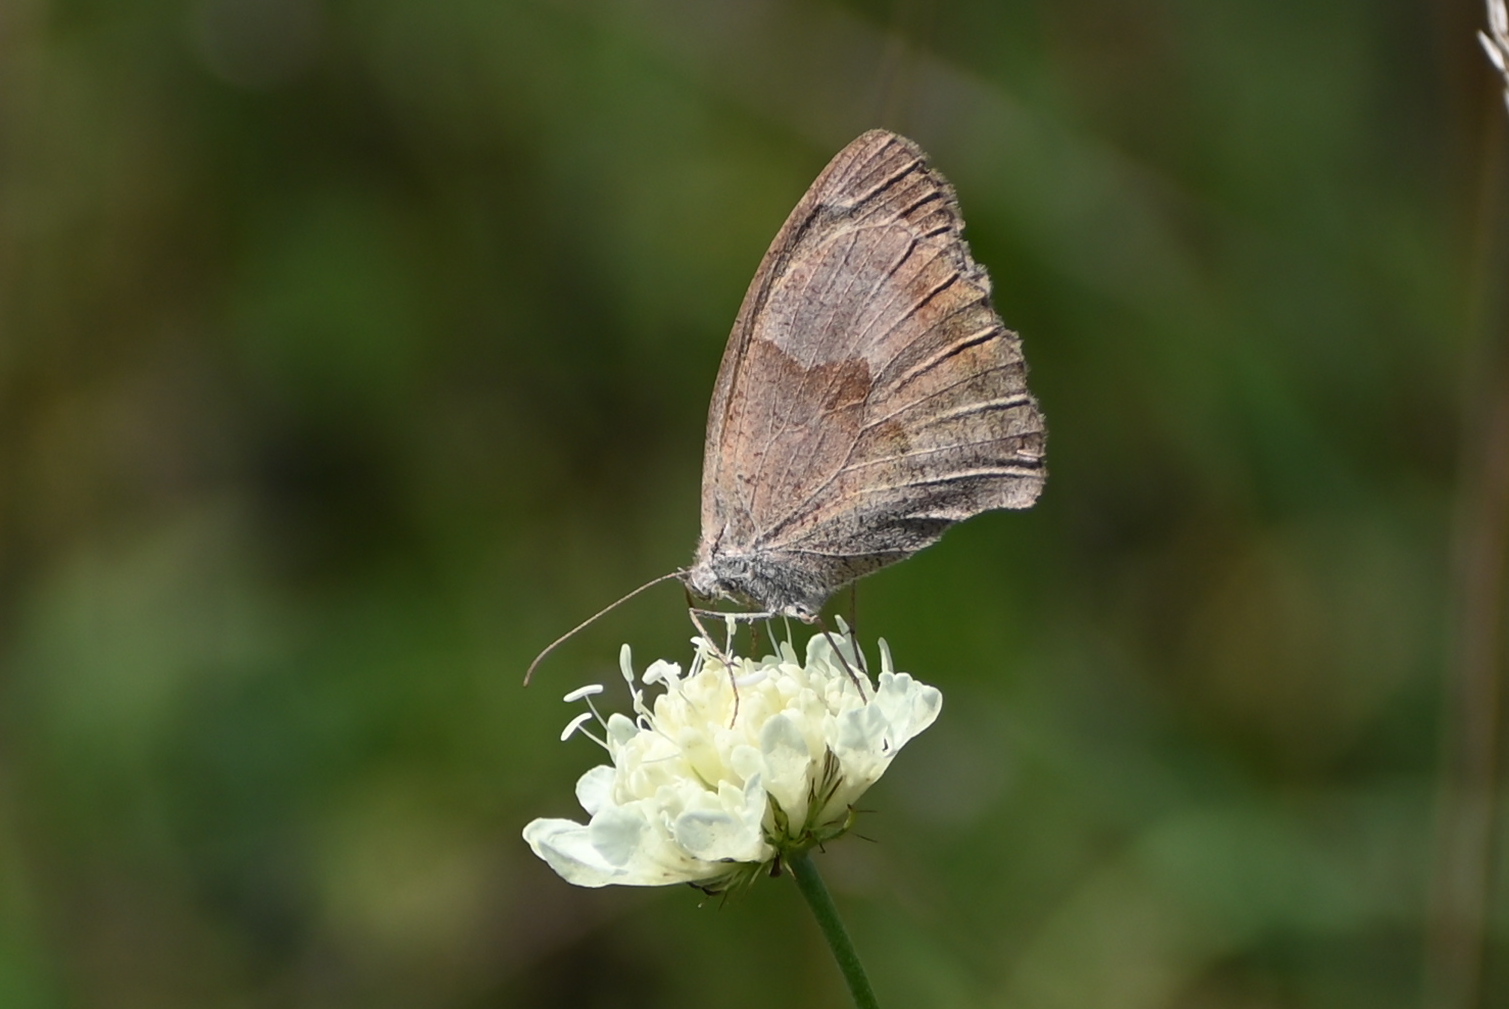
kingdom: Animalia
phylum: Arthropoda
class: Insecta
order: Lepidoptera
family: Nymphalidae
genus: Maniola
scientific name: Maniola jurtina
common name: Meadow brown
